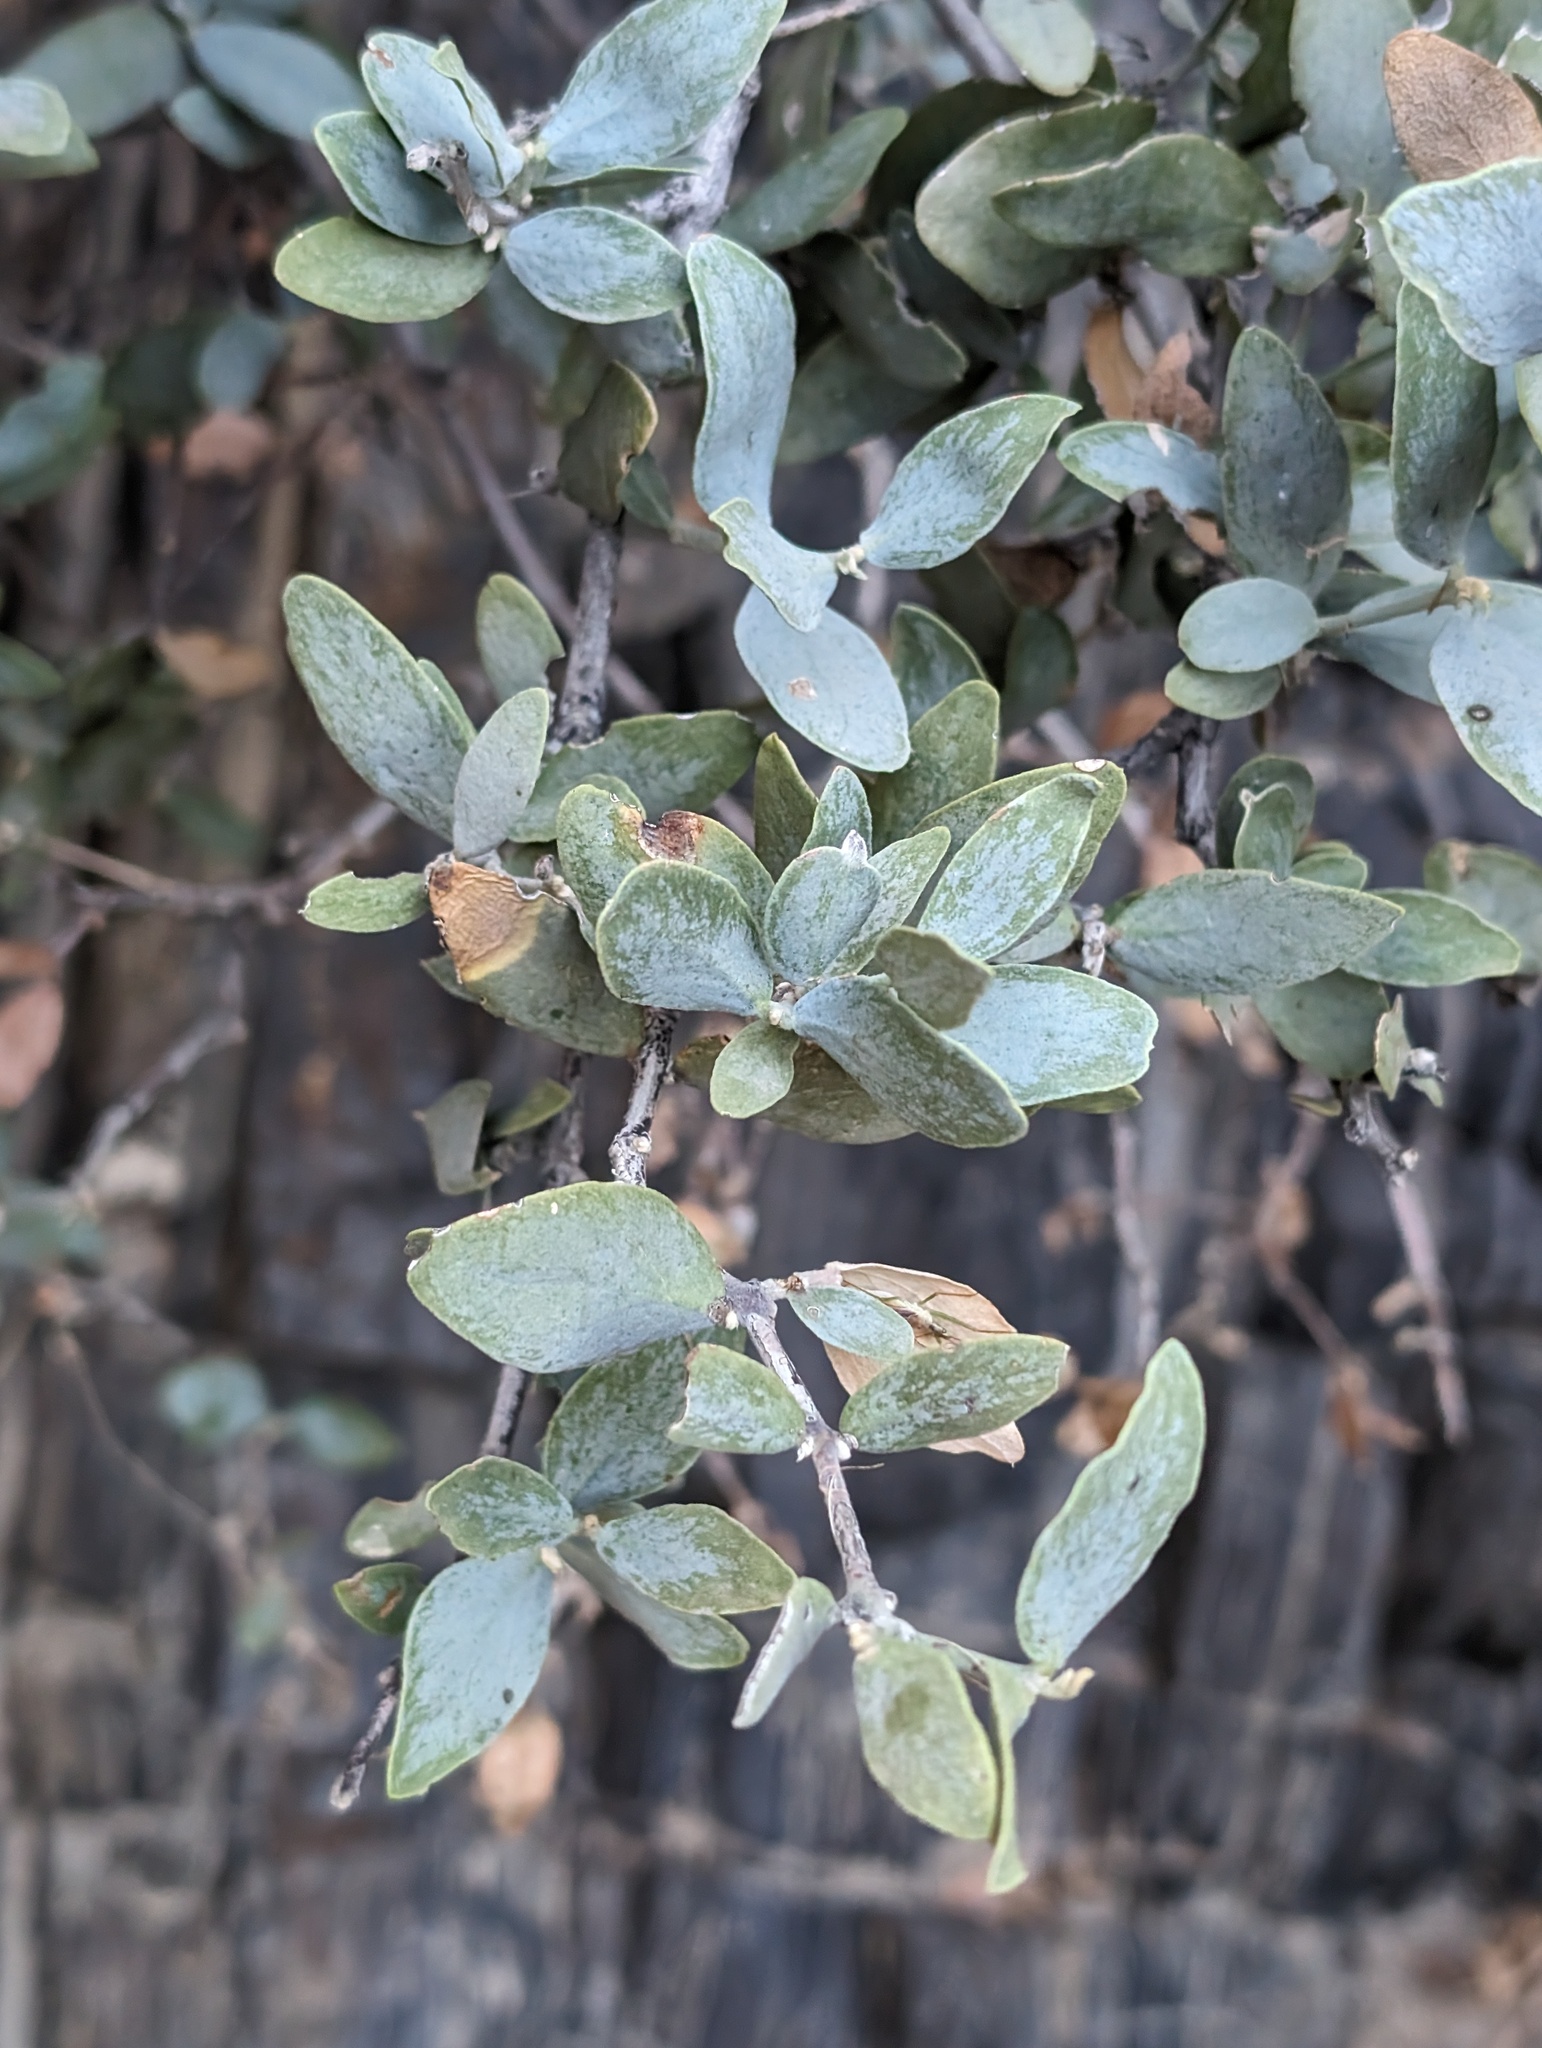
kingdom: Plantae
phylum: Tracheophyta
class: Magnoliopsida
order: Caryophyllales
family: Simmondsiaceae
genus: Simmondsia
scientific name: Simmondsia chinensis
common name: Jojoba
